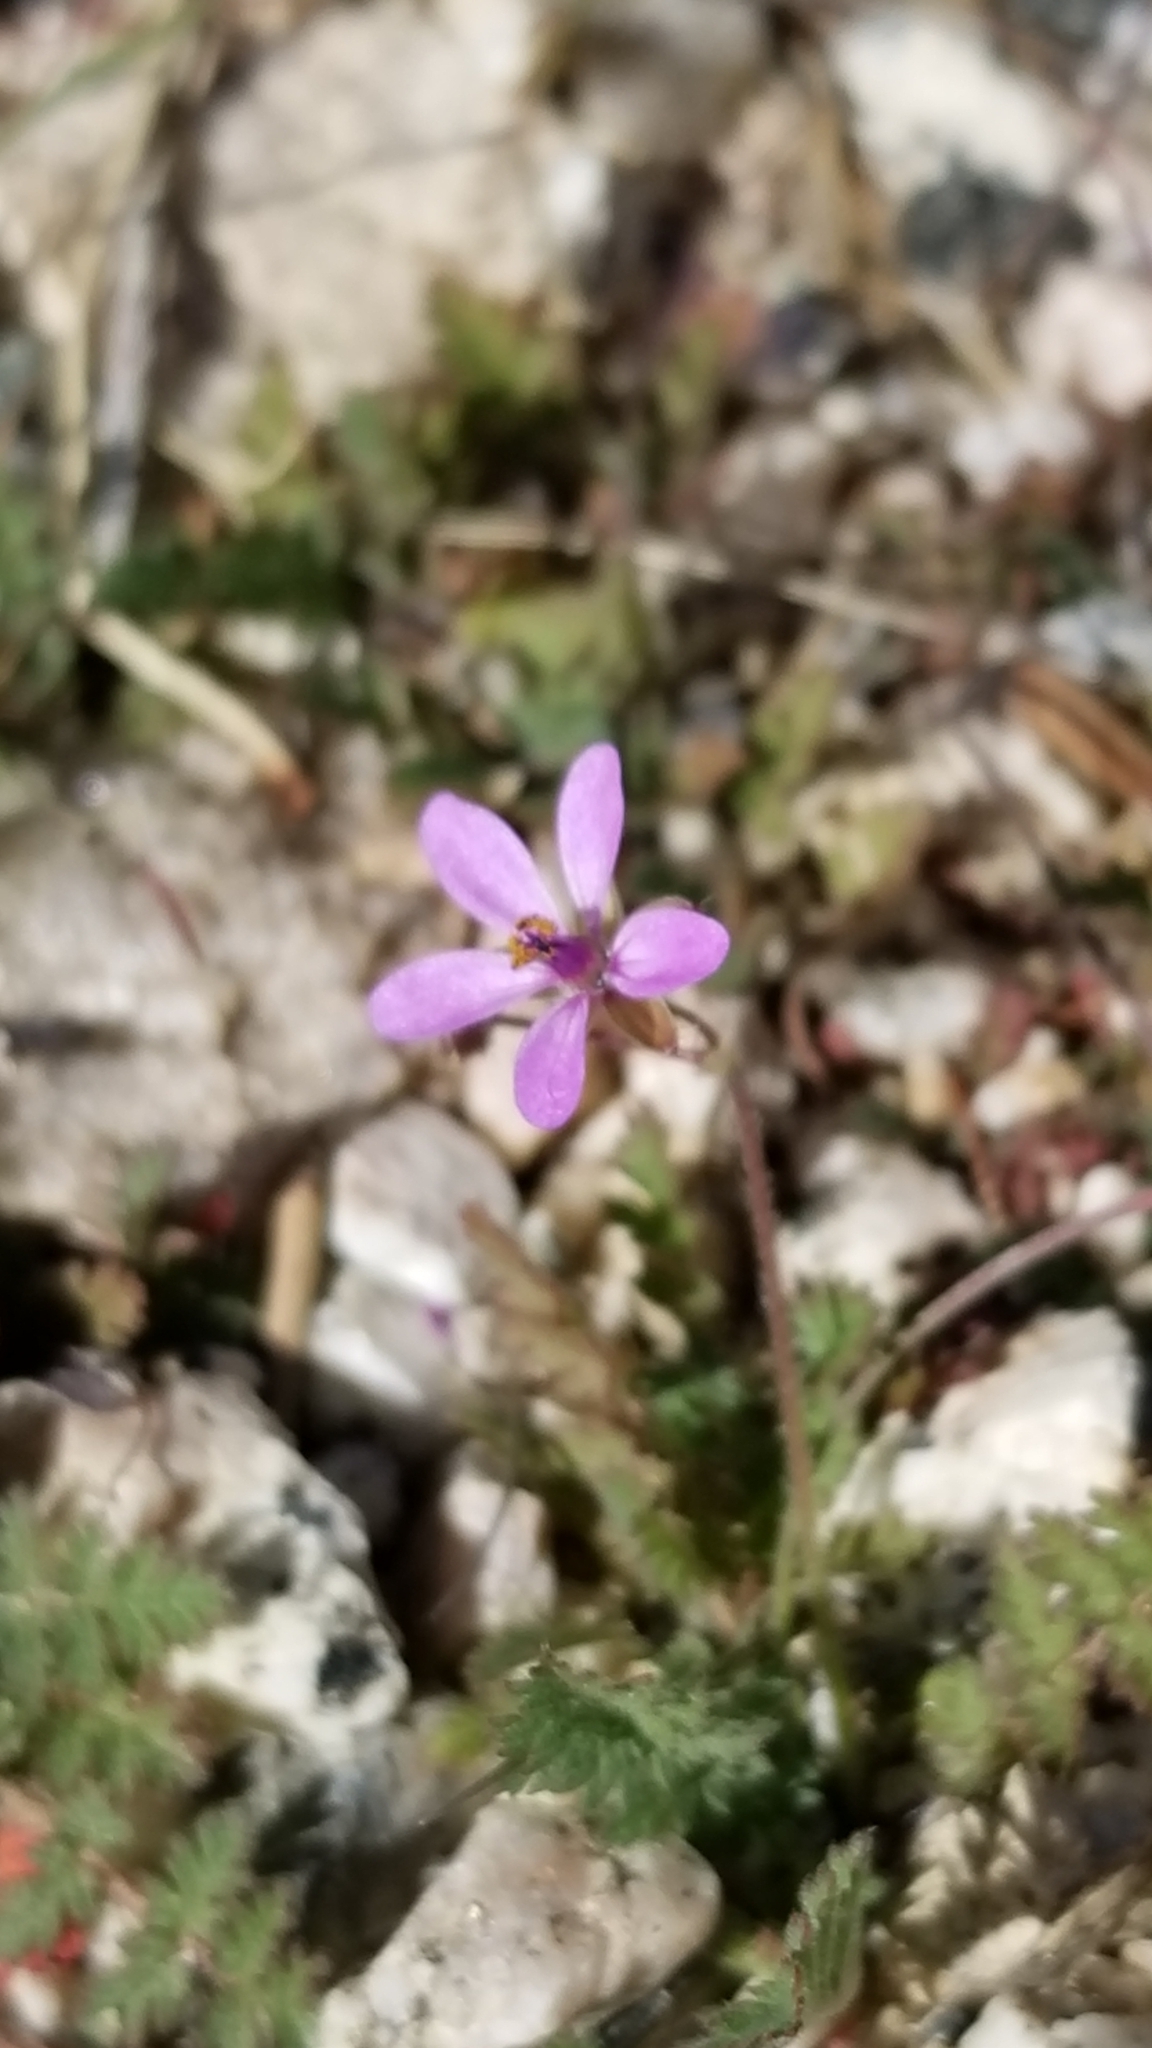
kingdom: Plantae
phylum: Tracheophyta
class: Magnoliopsida
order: Geraniales
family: Geraniaceae
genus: Erodium
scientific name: Erodium cicutarium
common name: Common stork's-bill
